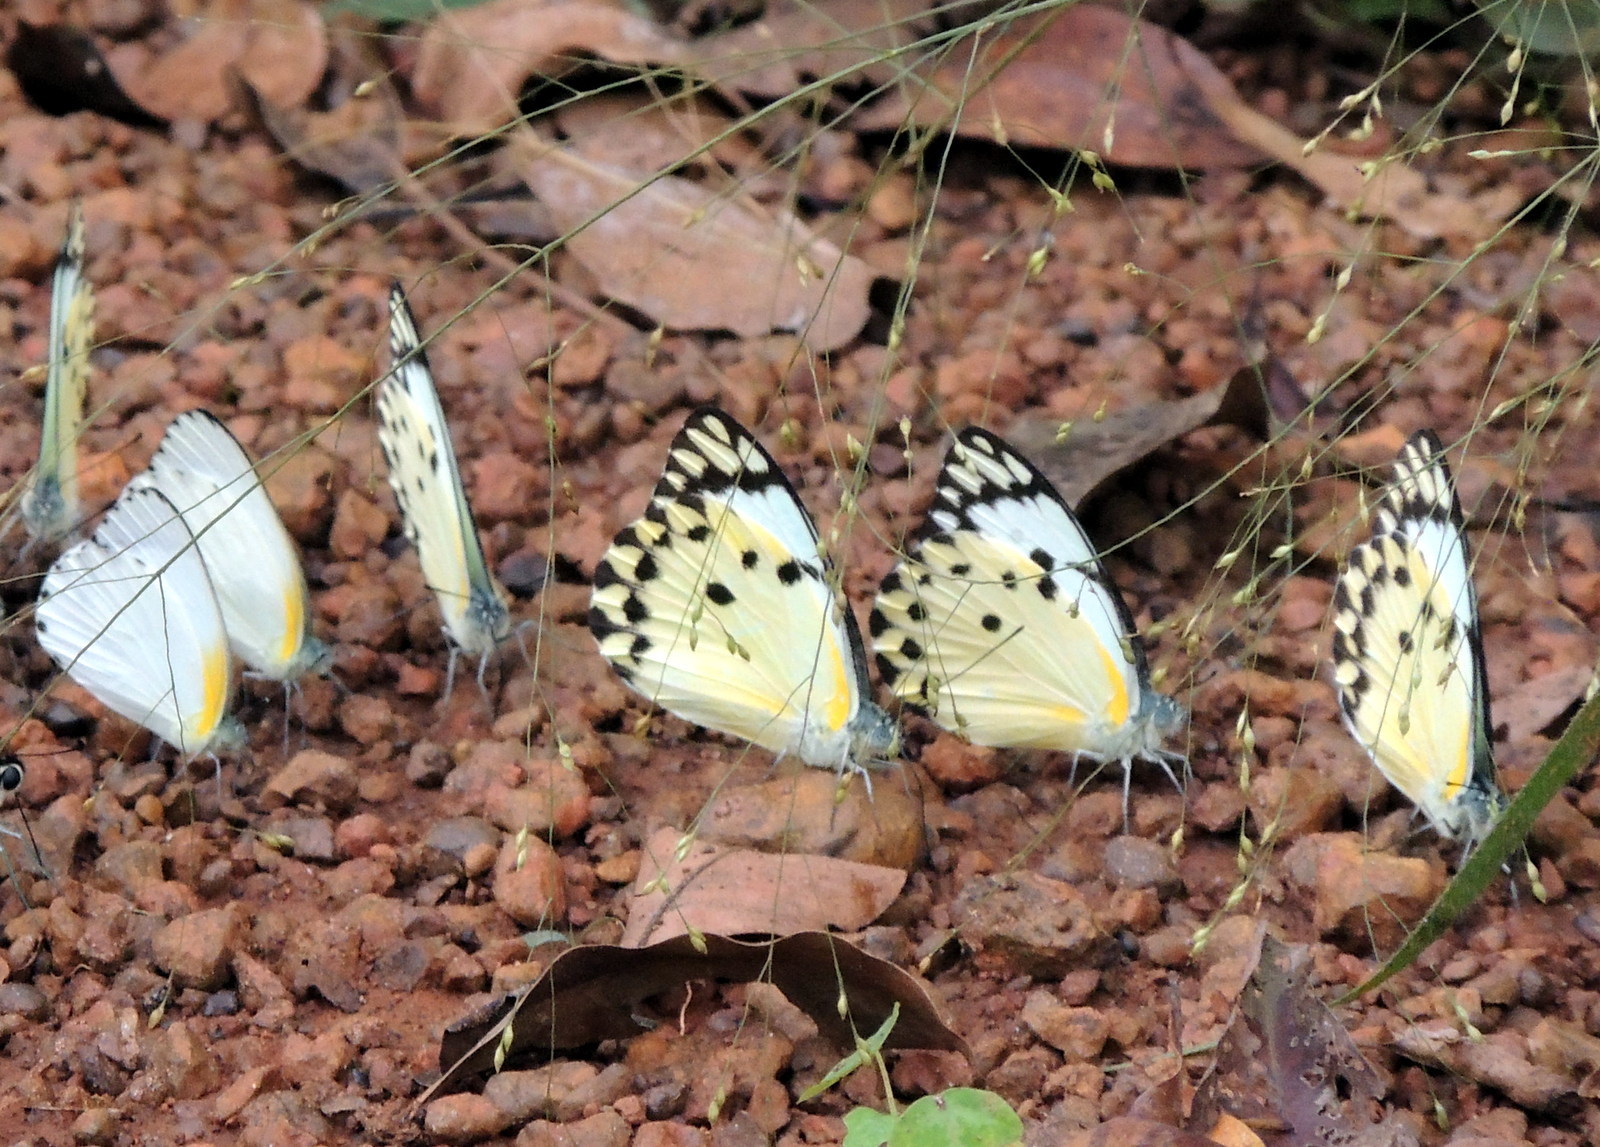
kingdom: Animalia
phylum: Arthropoda
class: Insecta
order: Lepidoptera
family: Pieridae
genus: Belenois
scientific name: Belenois calypso
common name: Calypso caper white
